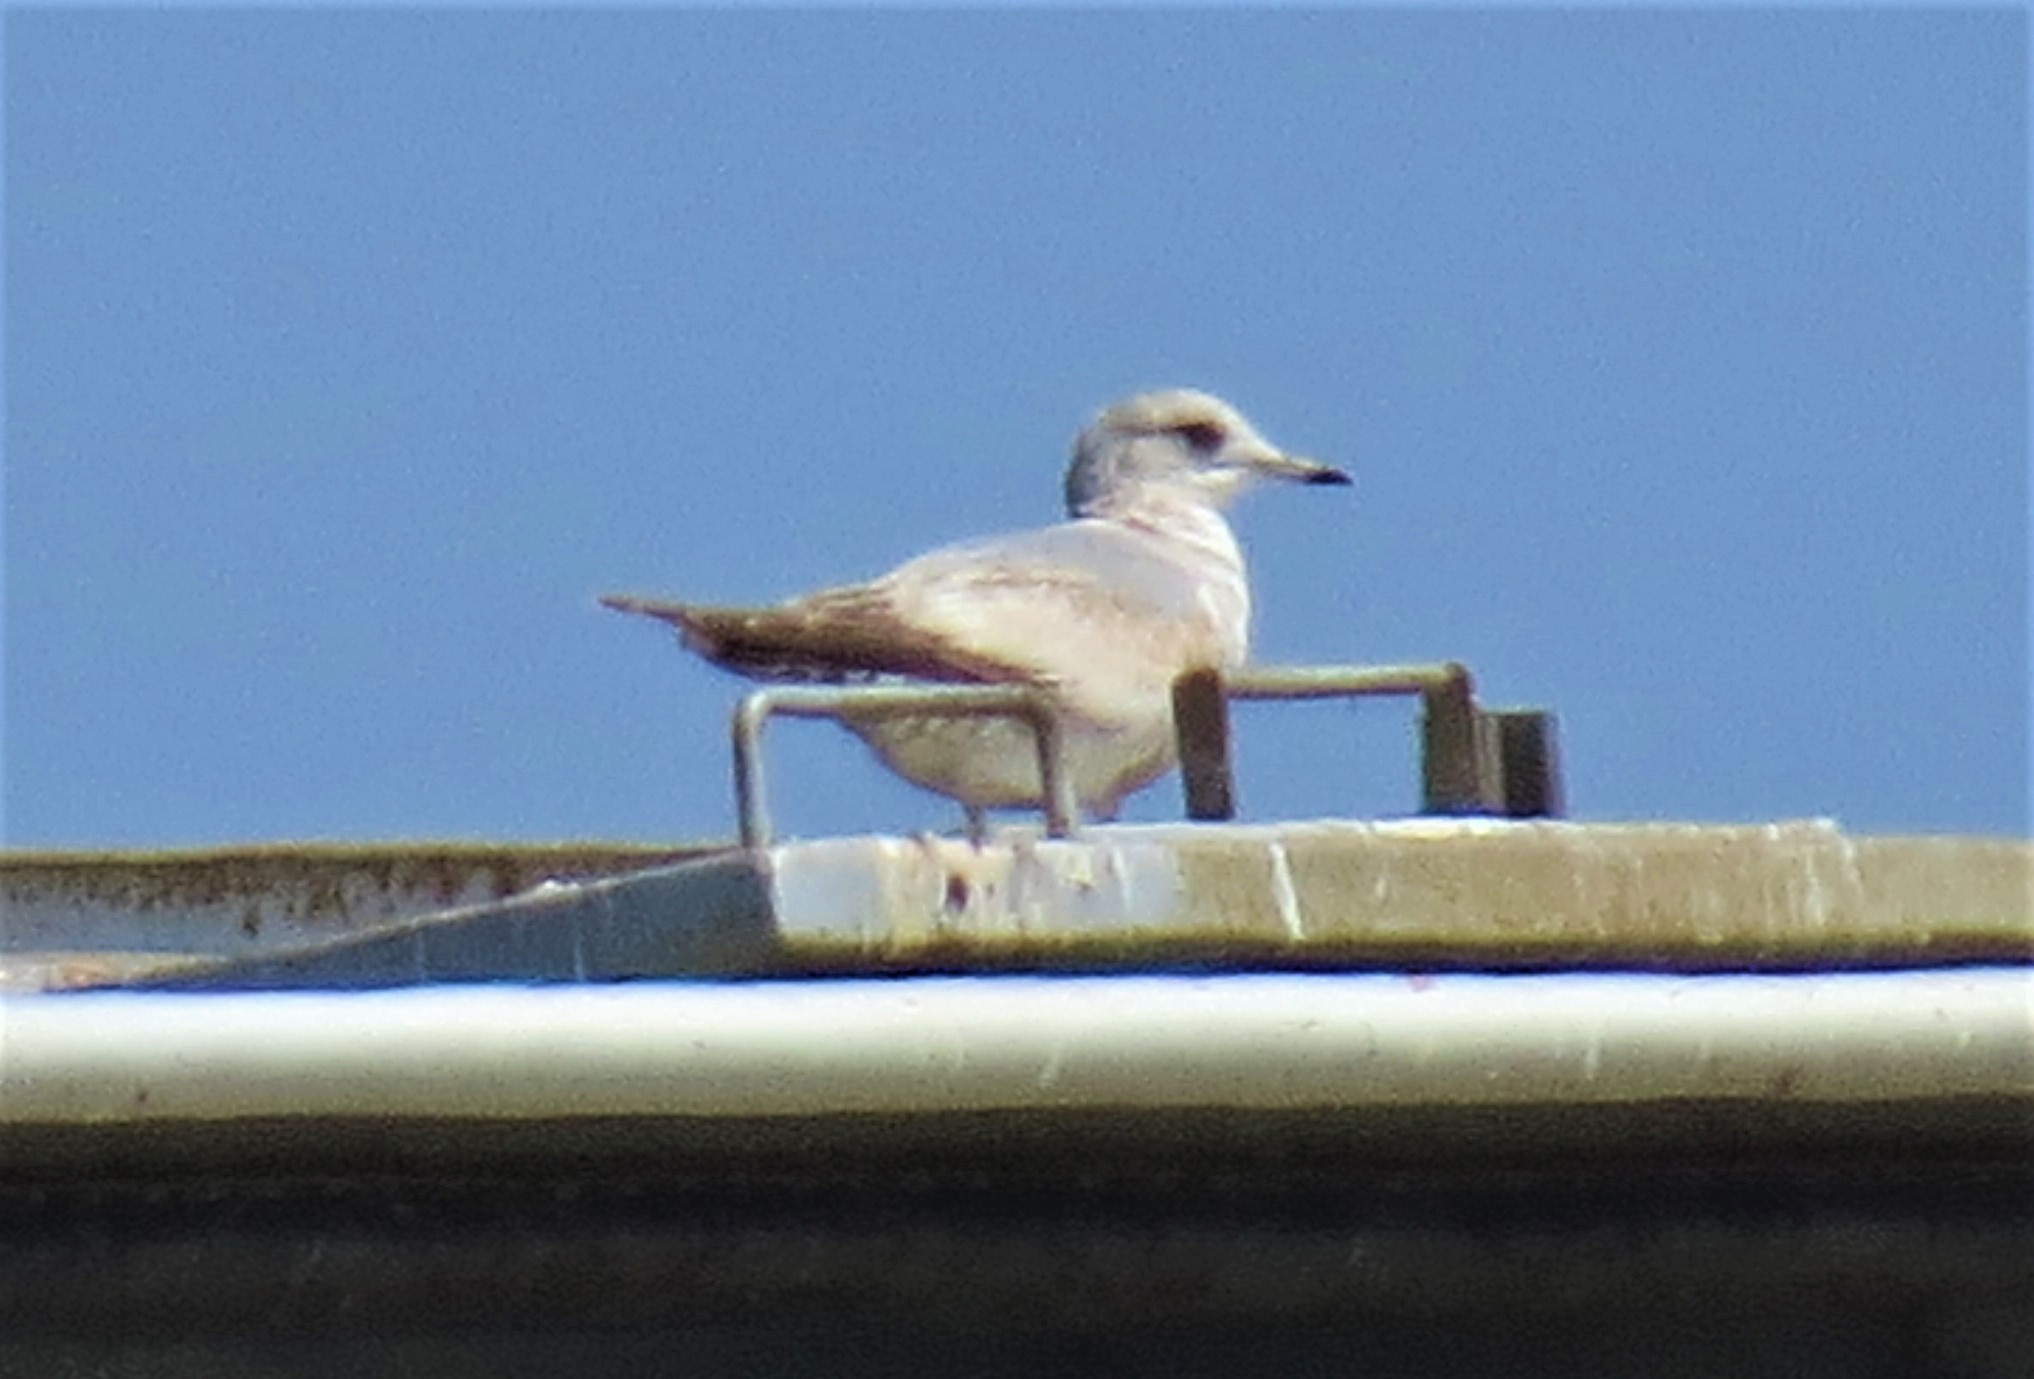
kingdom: Animalia
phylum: Chordata
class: Aves
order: Charadriiformes
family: Laridae
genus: Larus
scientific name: Larus brachyrhynchus
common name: Short-billed gull
